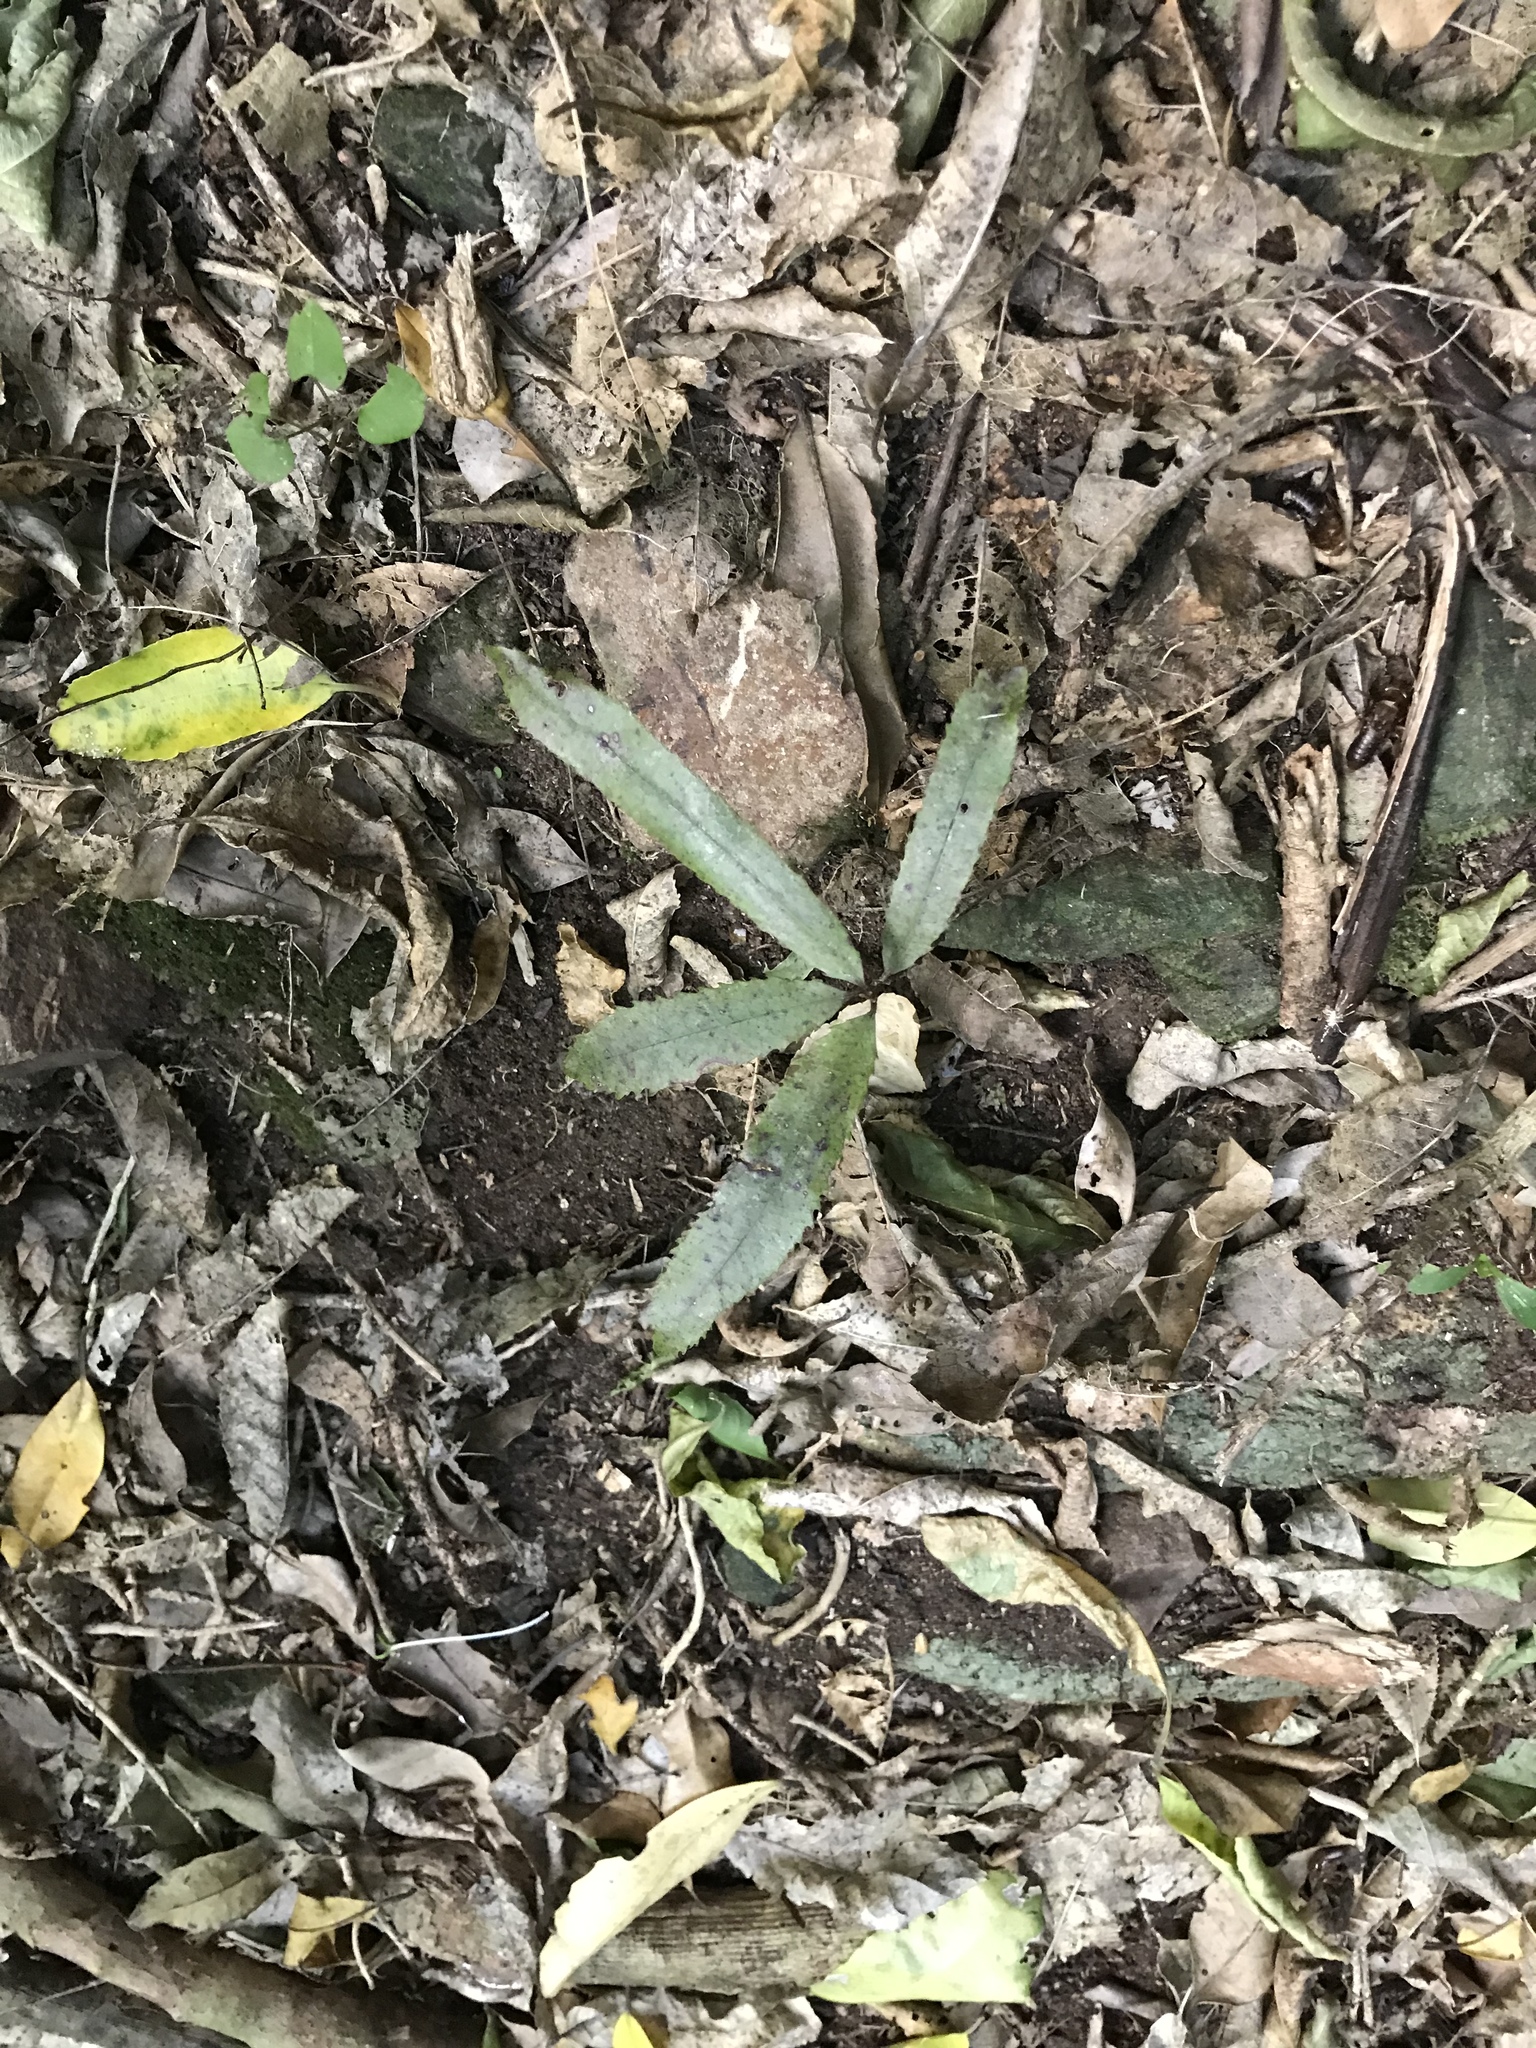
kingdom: Plantae
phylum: Tracheophyta
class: Magnoliopsida
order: Oxalidales
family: Elaeocarpaceae
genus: Elaeocarpus
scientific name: Elaeocarpus dentatus
